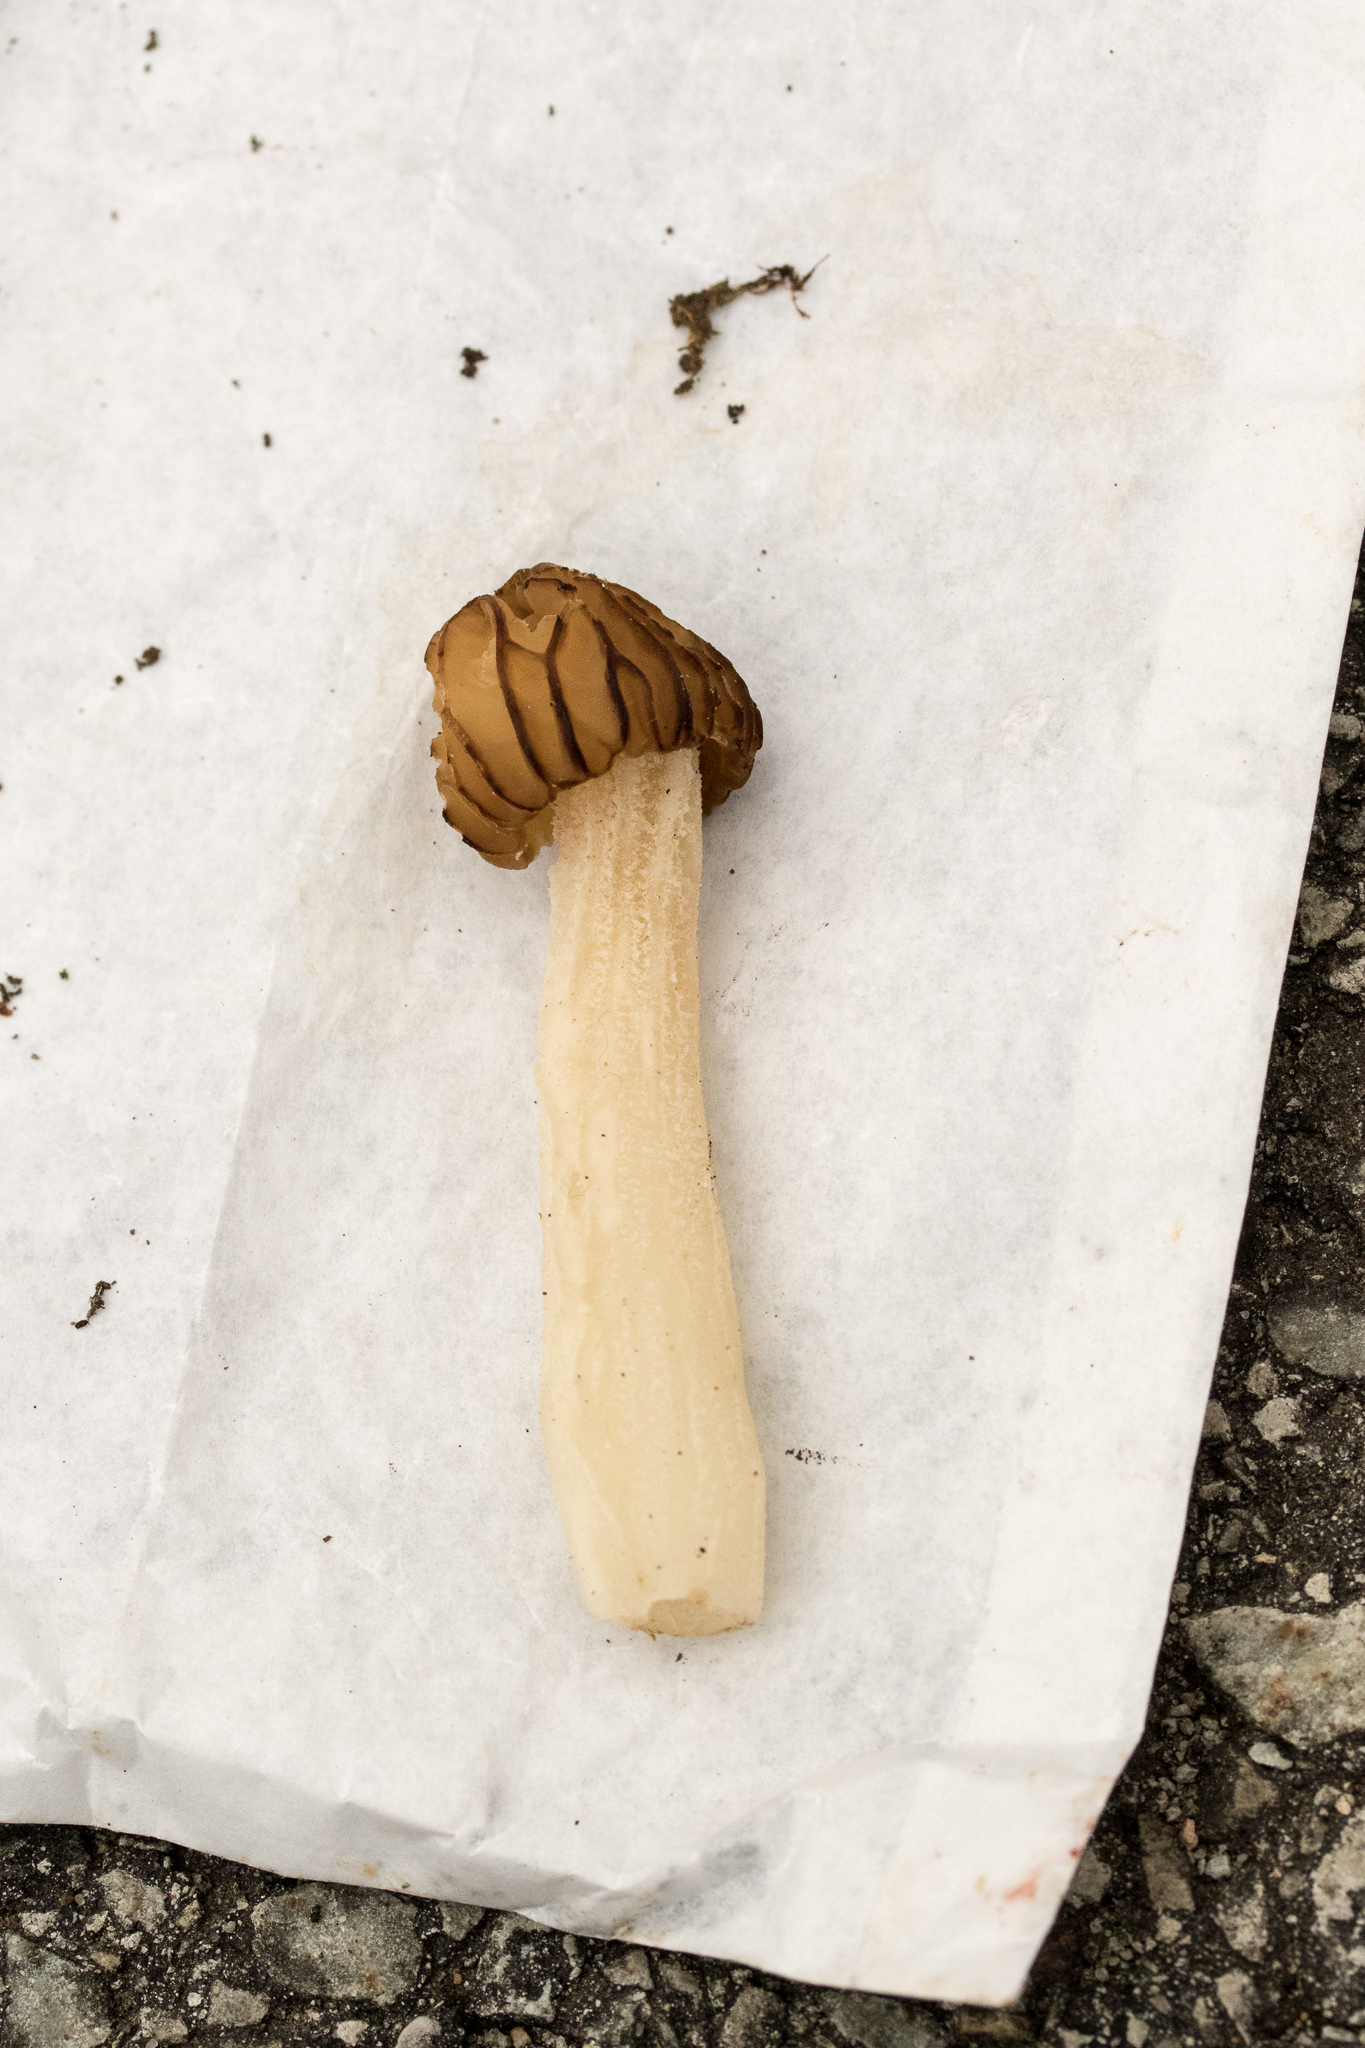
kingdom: Fungi
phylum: Ascomycota
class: Pezizomycetes
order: Pezizales
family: Morchellaceae
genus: Morchella
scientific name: Morchella punctipes
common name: Half-free morel
